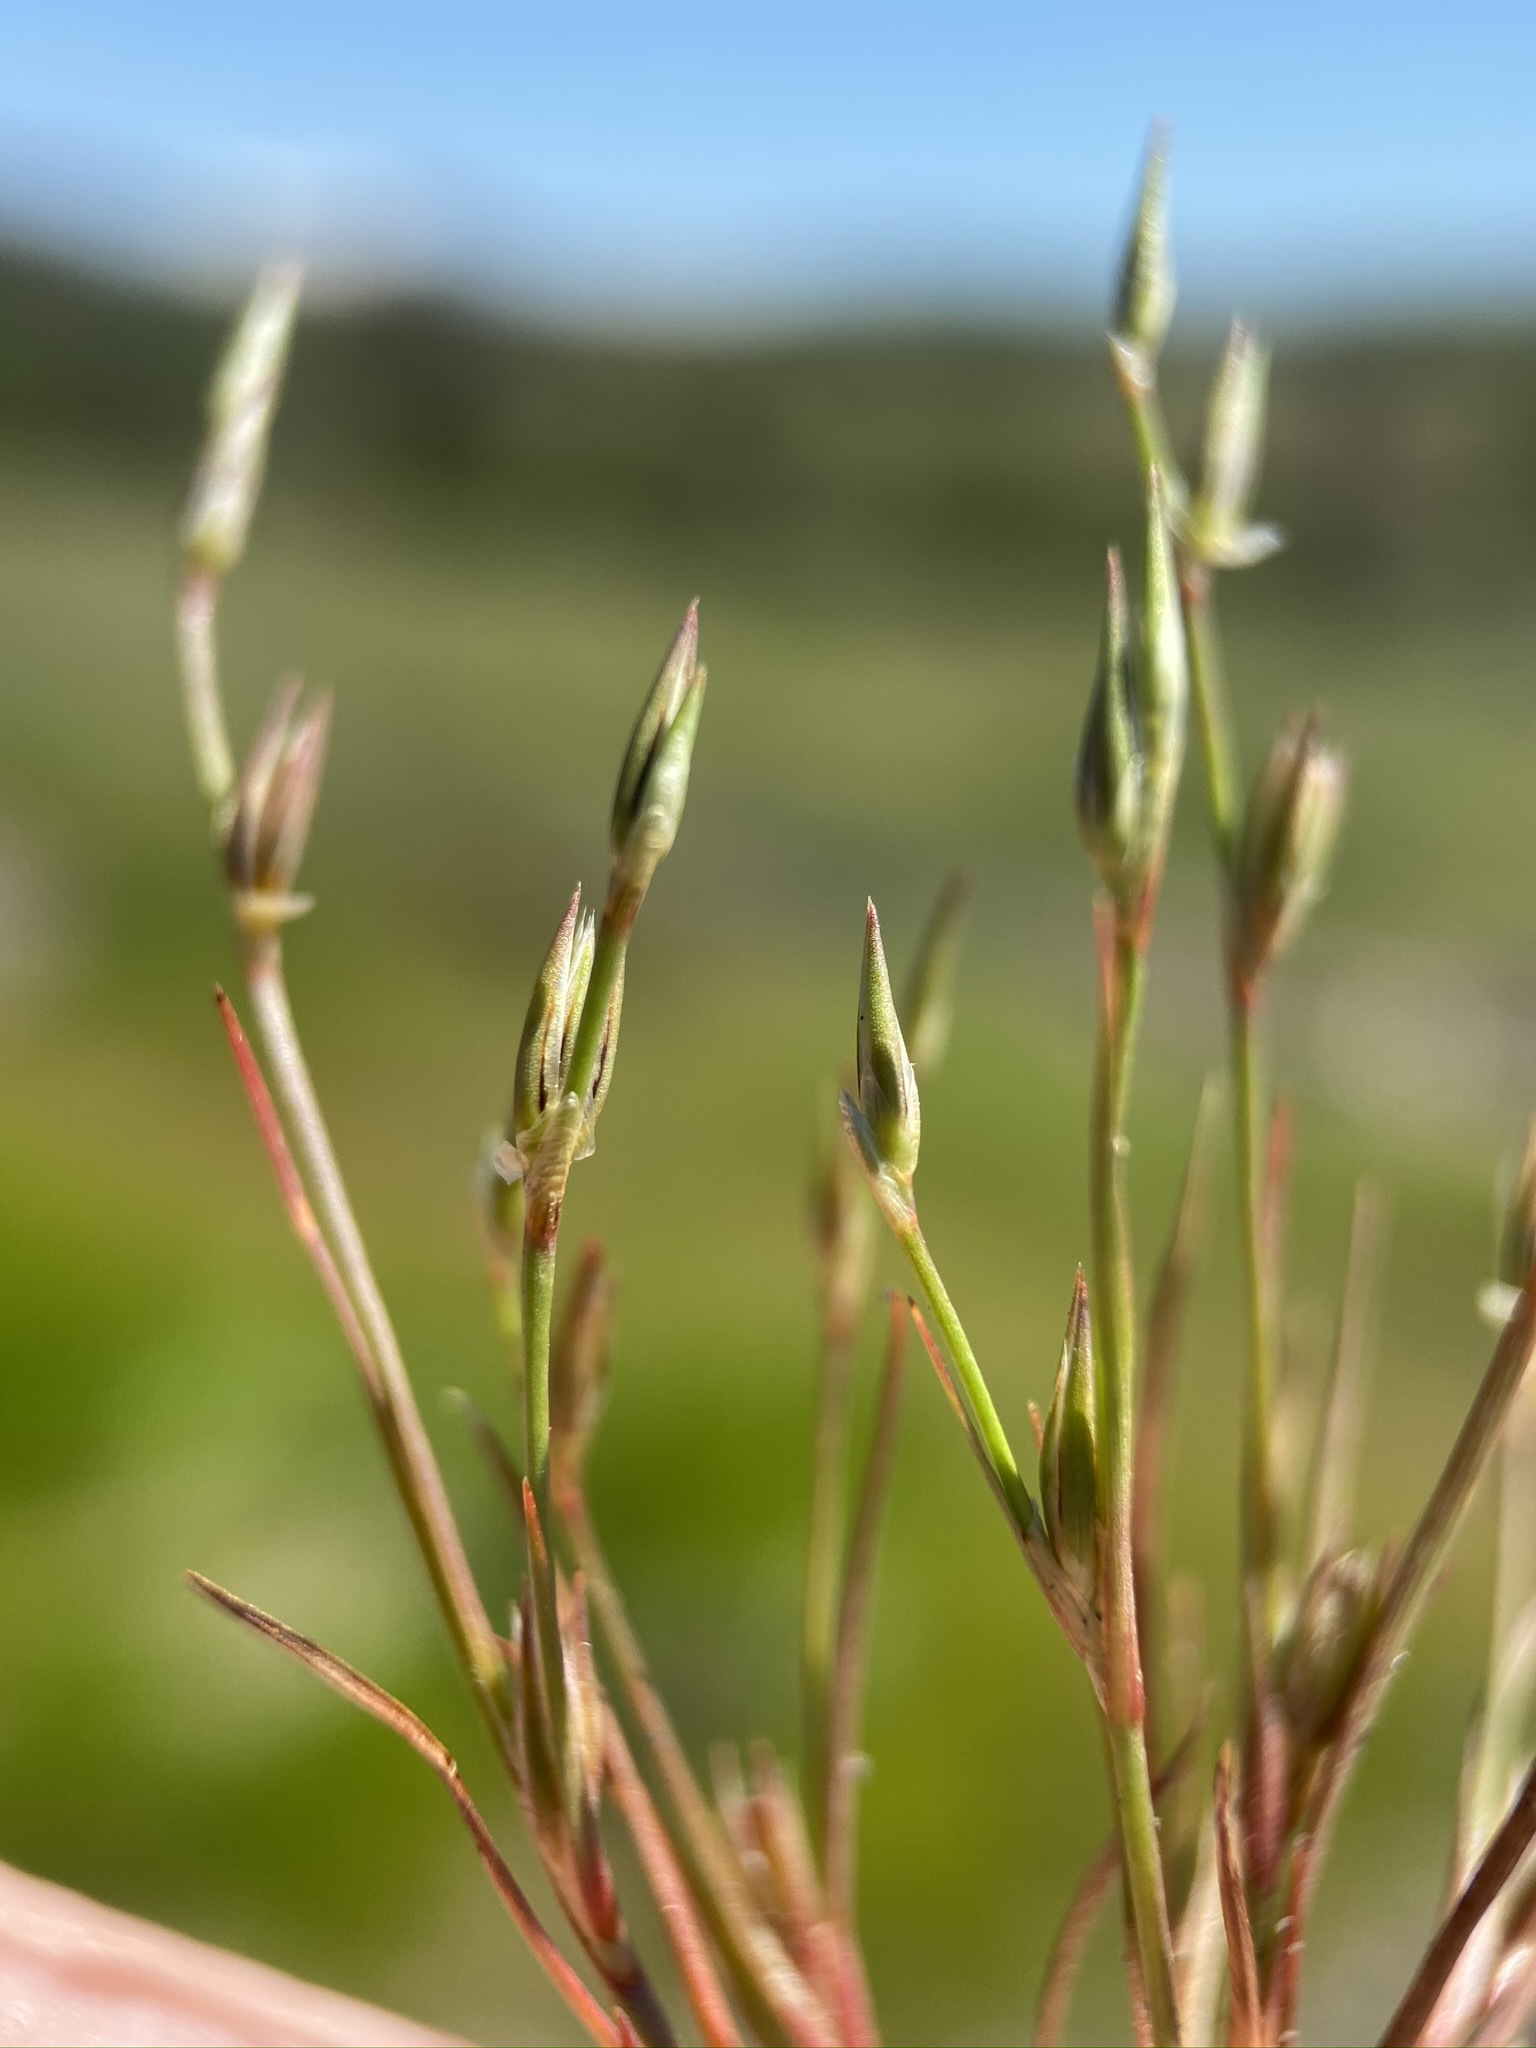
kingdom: Plantae
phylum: Tracheophyta
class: Liliopsida
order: Poales
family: Juncaceae
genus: Juncus
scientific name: Juncus bufonius
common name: Toad rush
